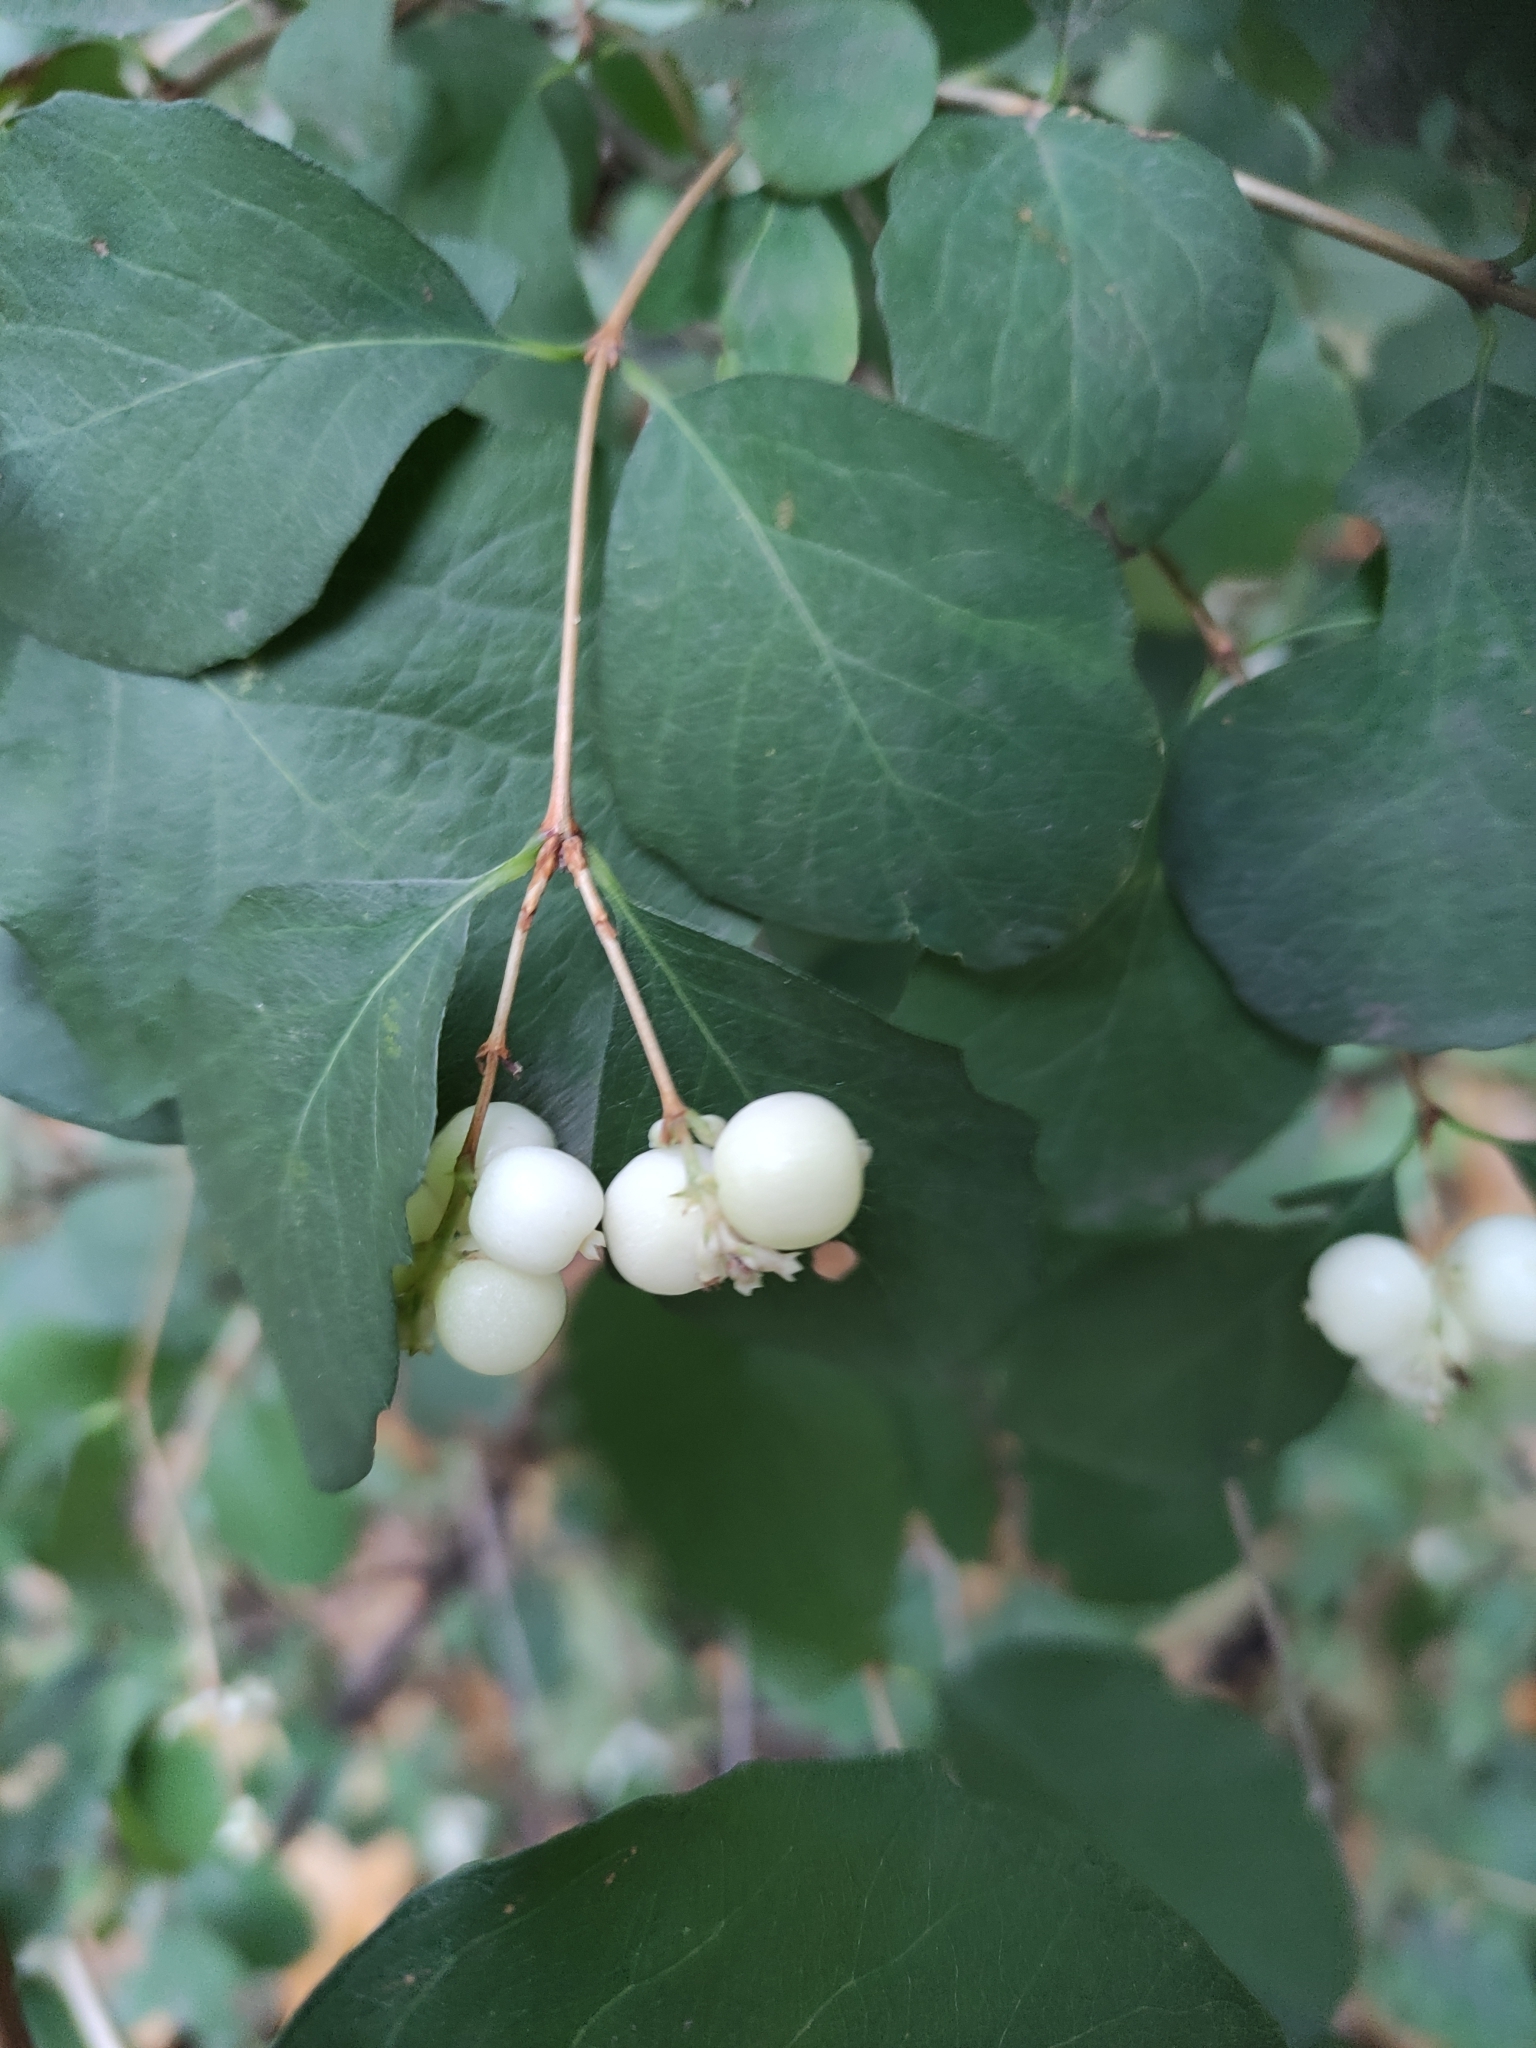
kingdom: Plantae
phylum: Tracheophyta
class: Magnoliopsida
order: Dipsacales
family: Caprifoliaceae
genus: Symphoricarpos
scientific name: Symphoricarpos albus
